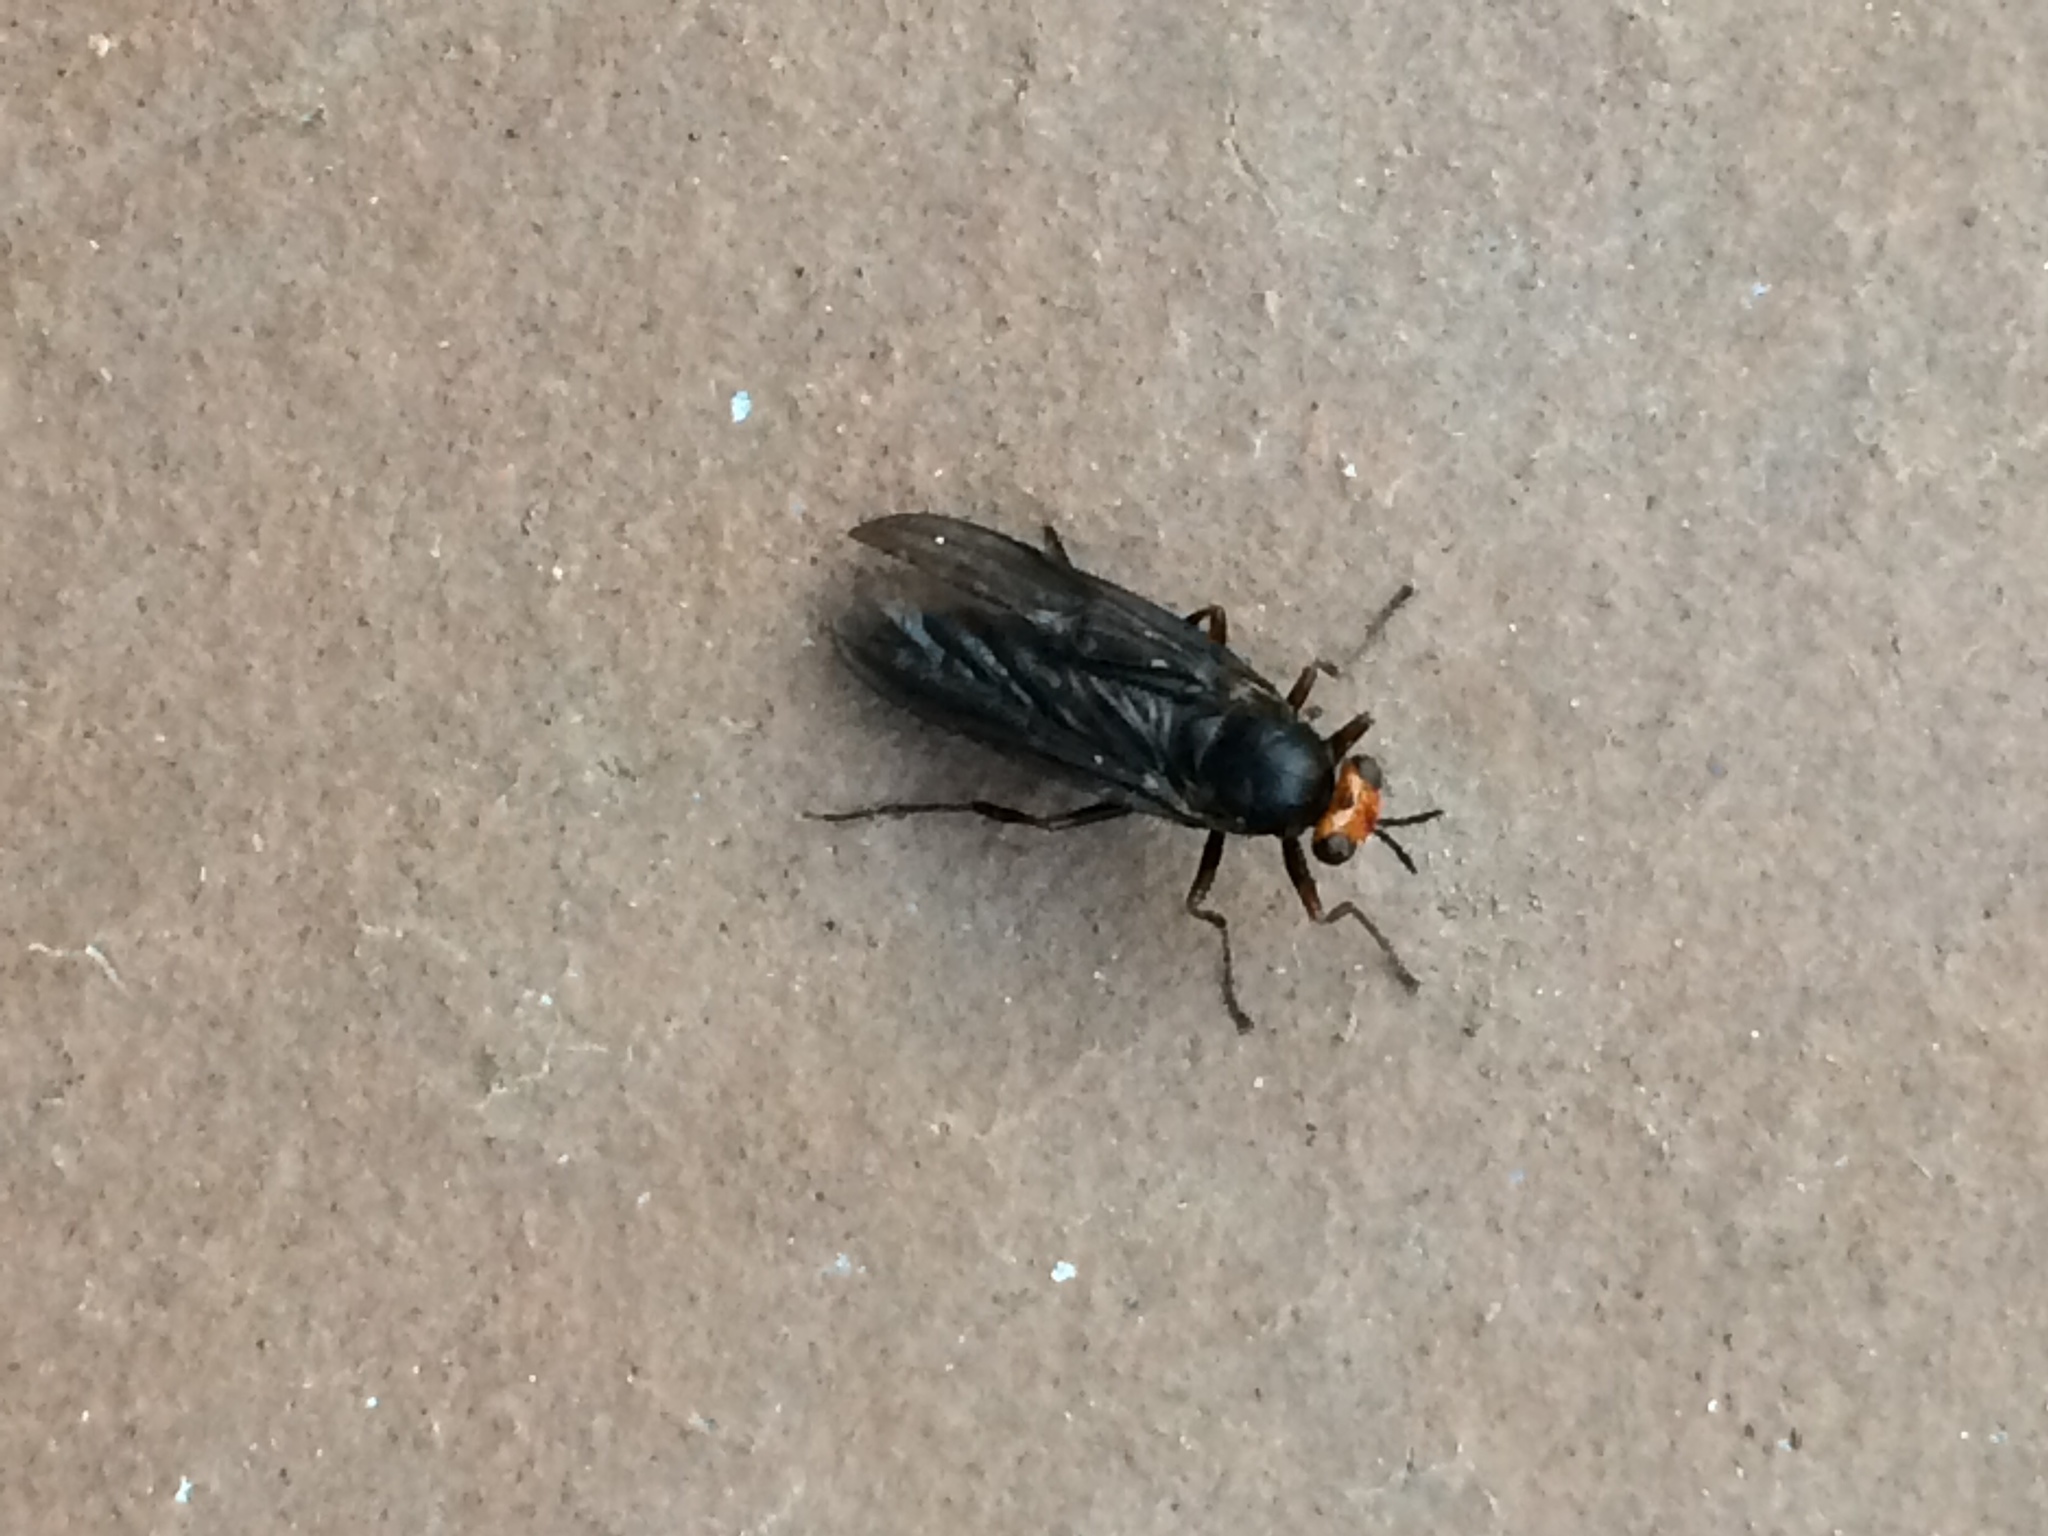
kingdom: Animalia
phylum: Arthropoda
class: Insecta
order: Diptera
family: Stratiomyidae
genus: Inopus
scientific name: Inopus rubriceps
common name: Soldier fly
